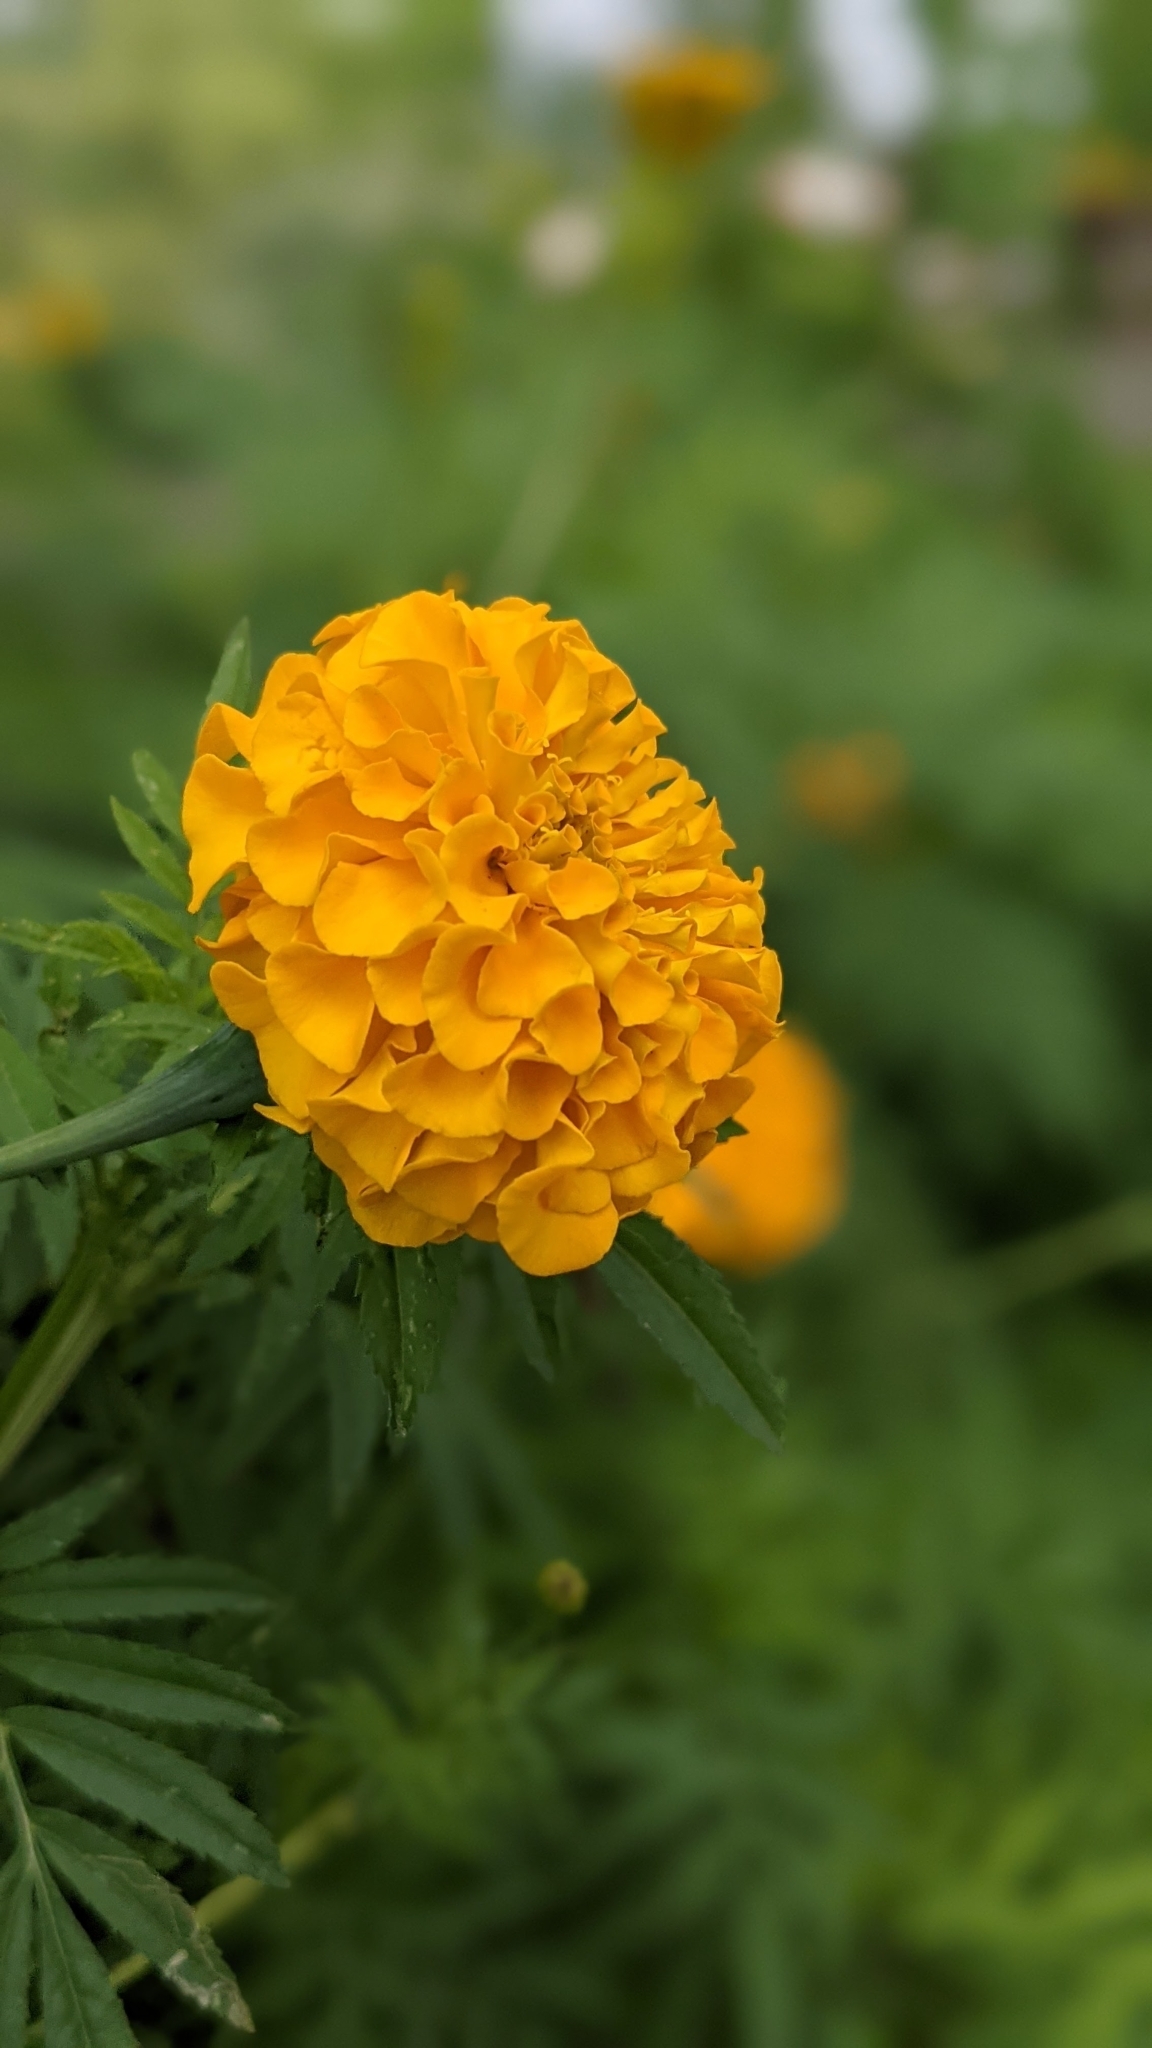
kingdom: Plantae
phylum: Tracheophyta
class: Magnoliopsida
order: Asterales
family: Asteraceae
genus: Tagetes
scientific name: Tagetes erecta
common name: African marigold
